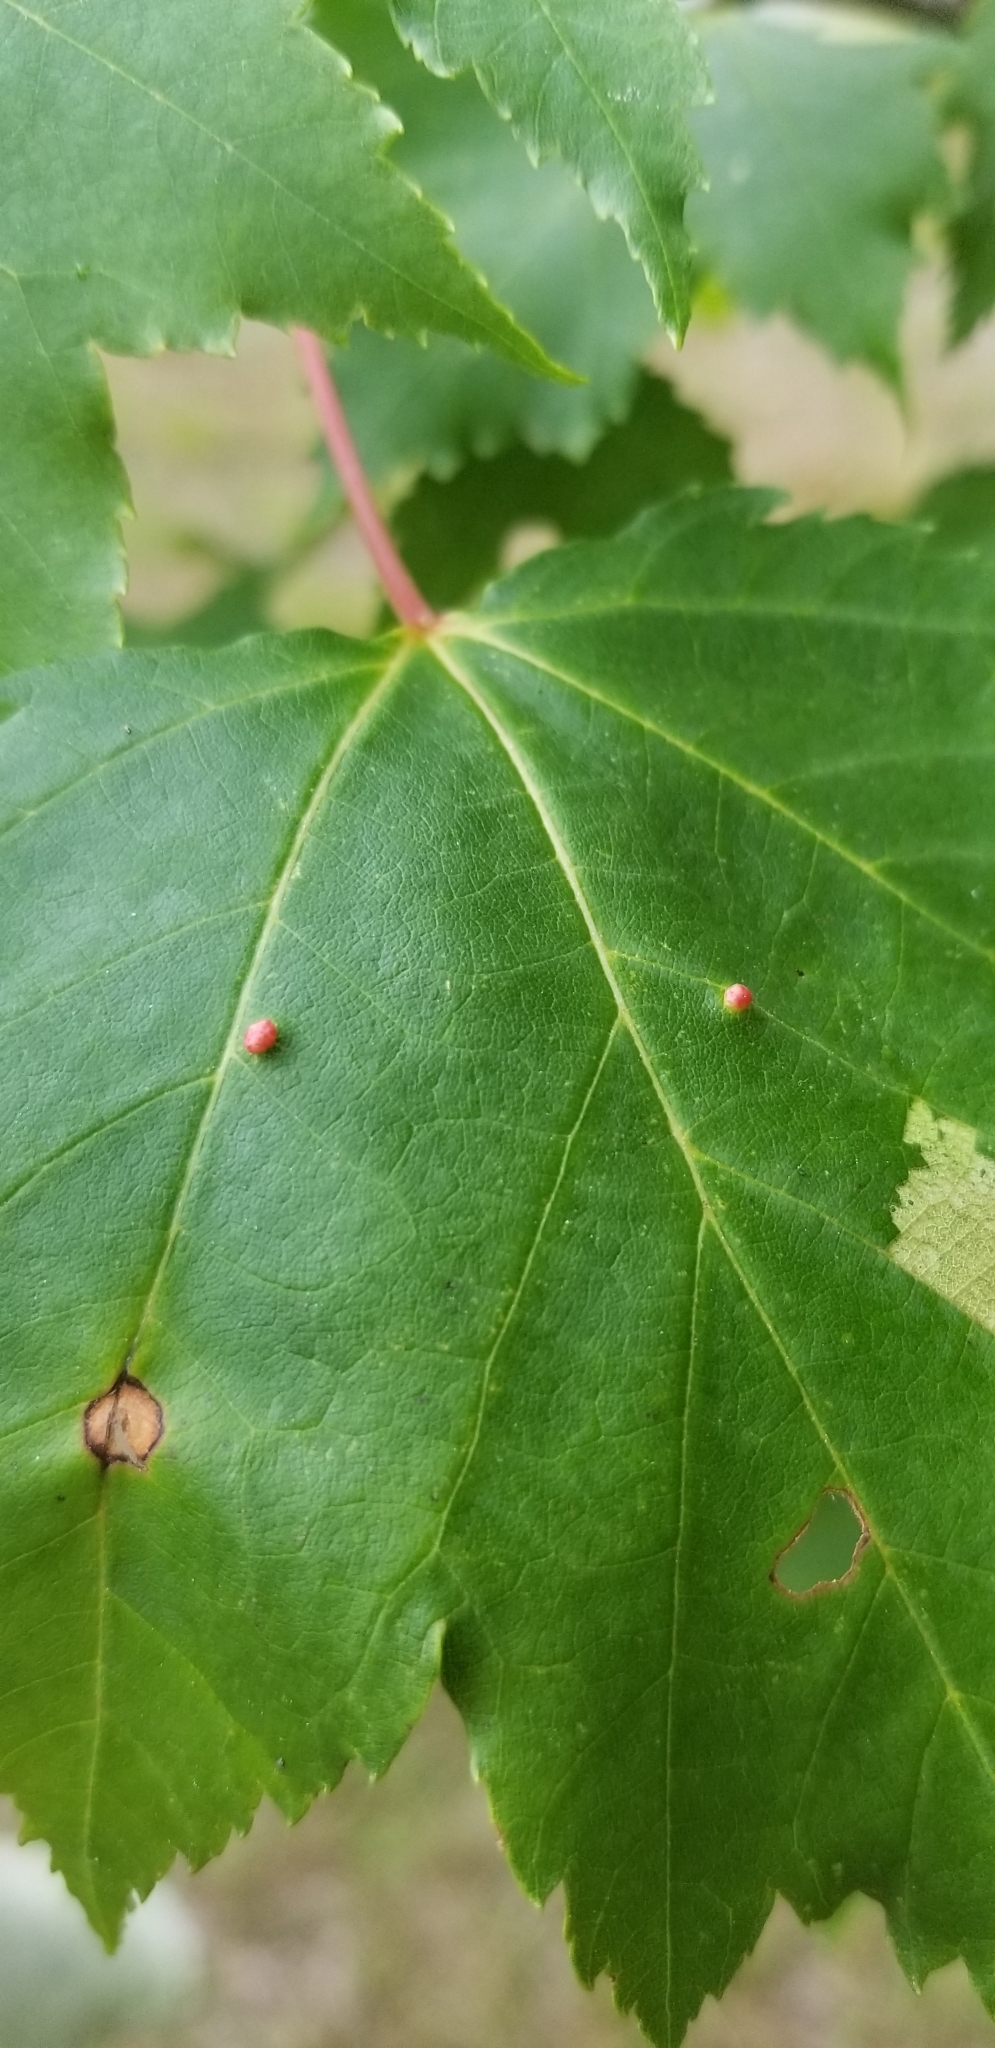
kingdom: Animalia
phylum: Arthropoda
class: Arachnida
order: Trombidiformes
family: Eriophyidae
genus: Vasates
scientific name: Vasates quadripedes
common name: Maple bladder gall mite
